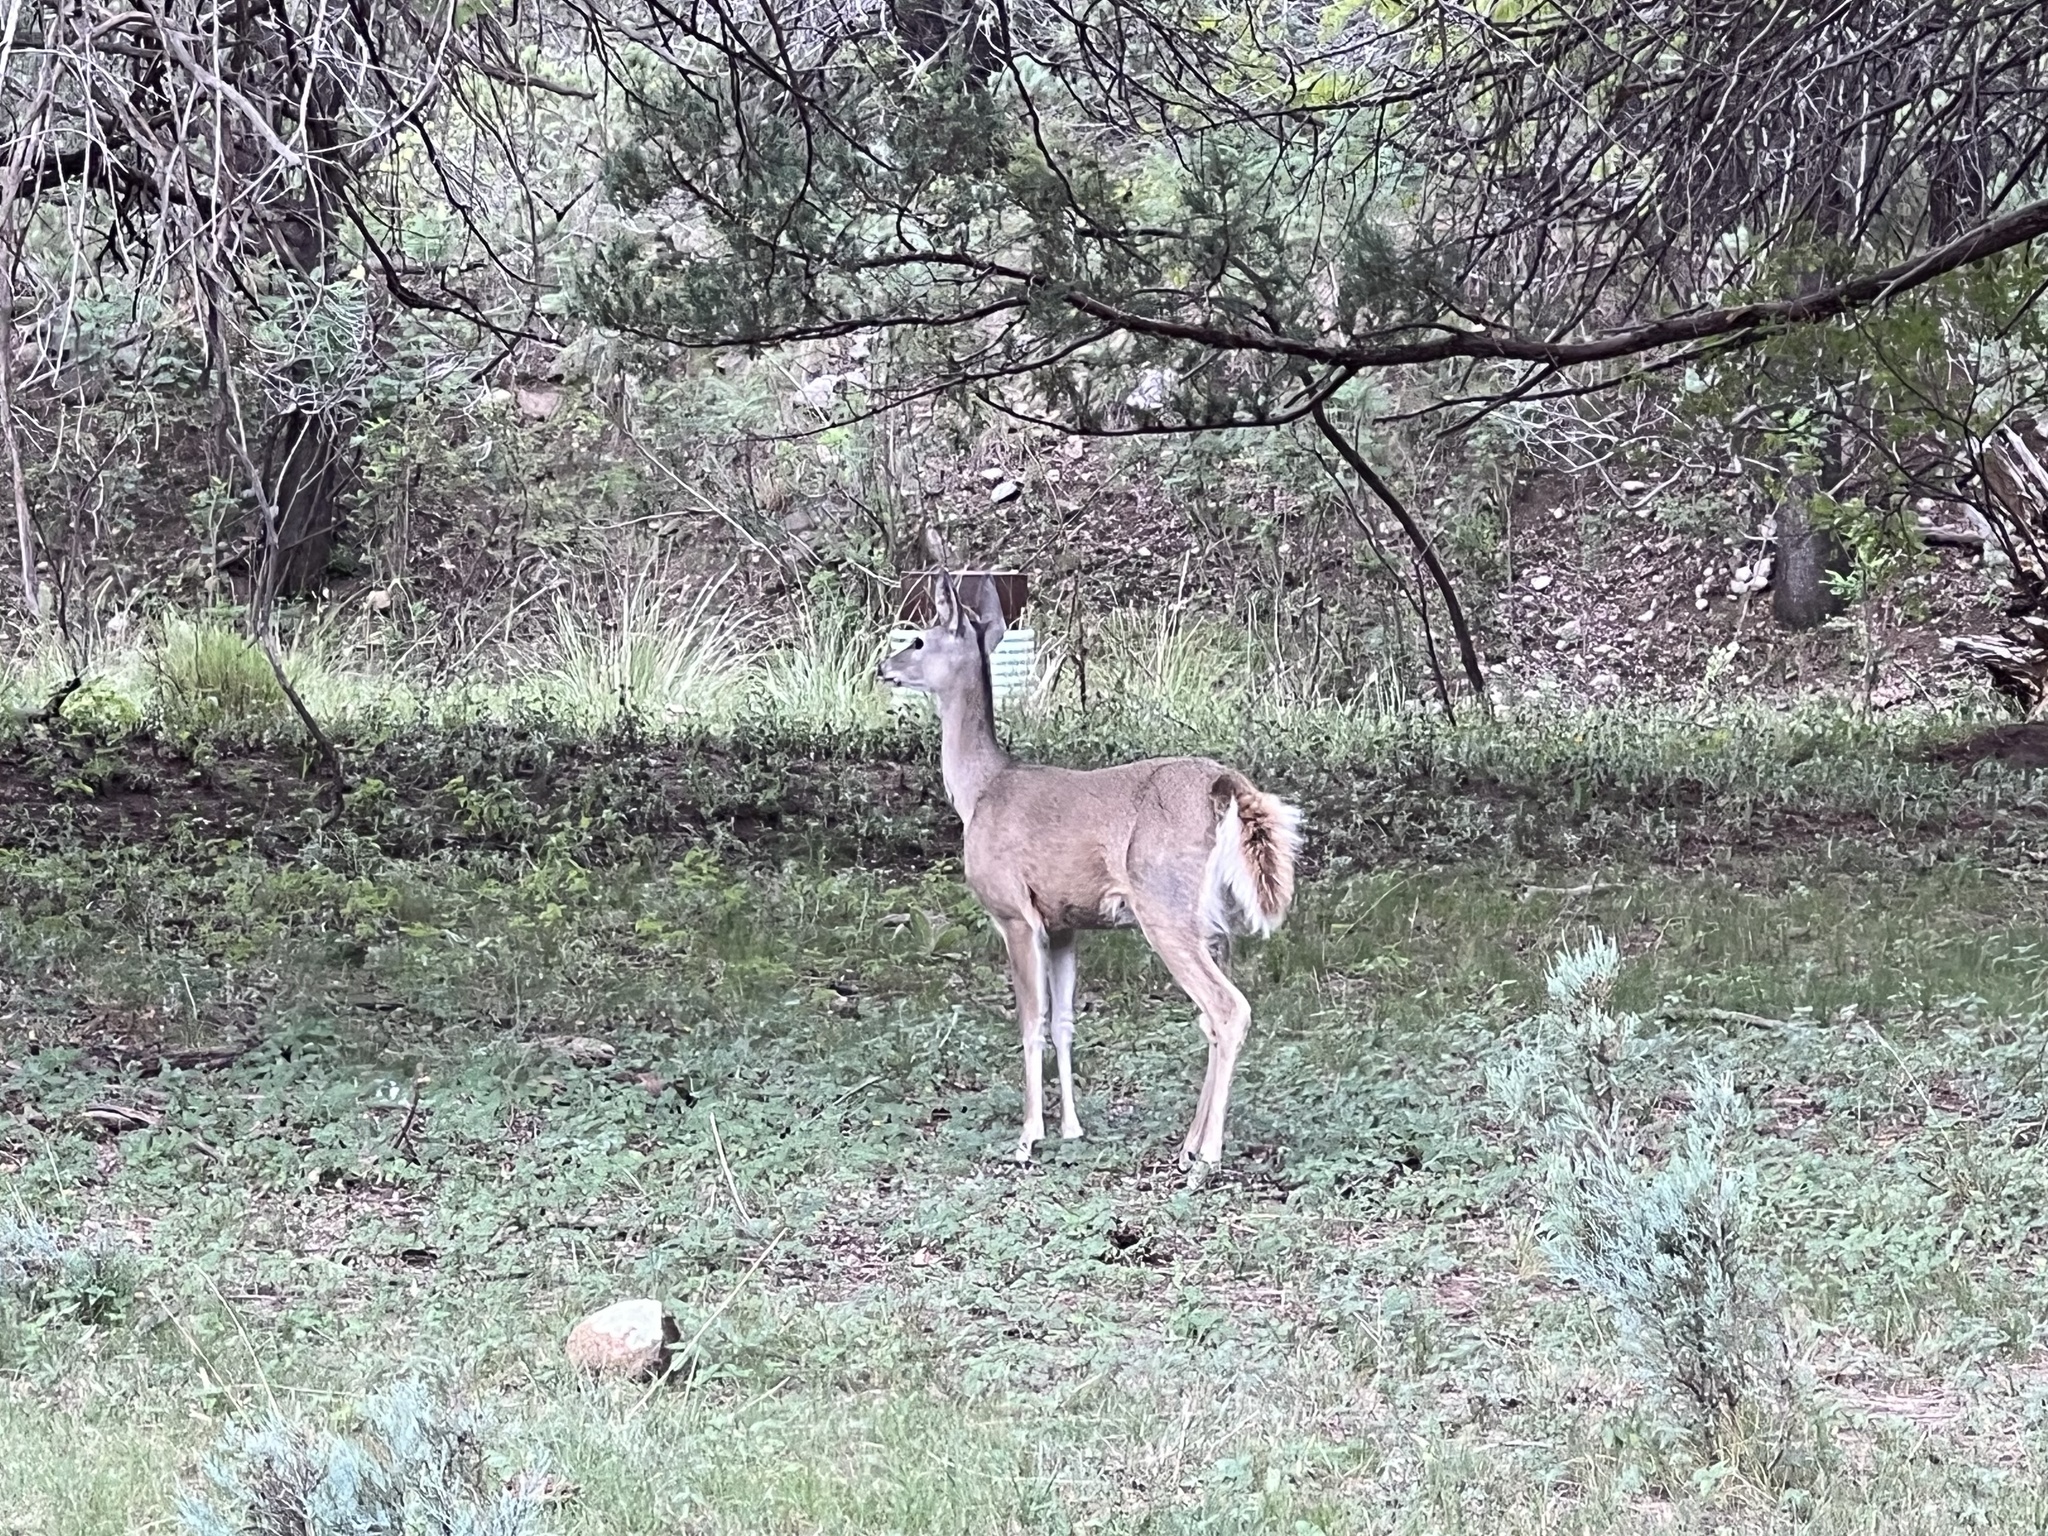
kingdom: Animalia
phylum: Chordata
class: Mammalia
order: Artiodactyla
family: Cervidae
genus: Odocoileus
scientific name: Odocoileus virginianus
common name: White-tailed deer
